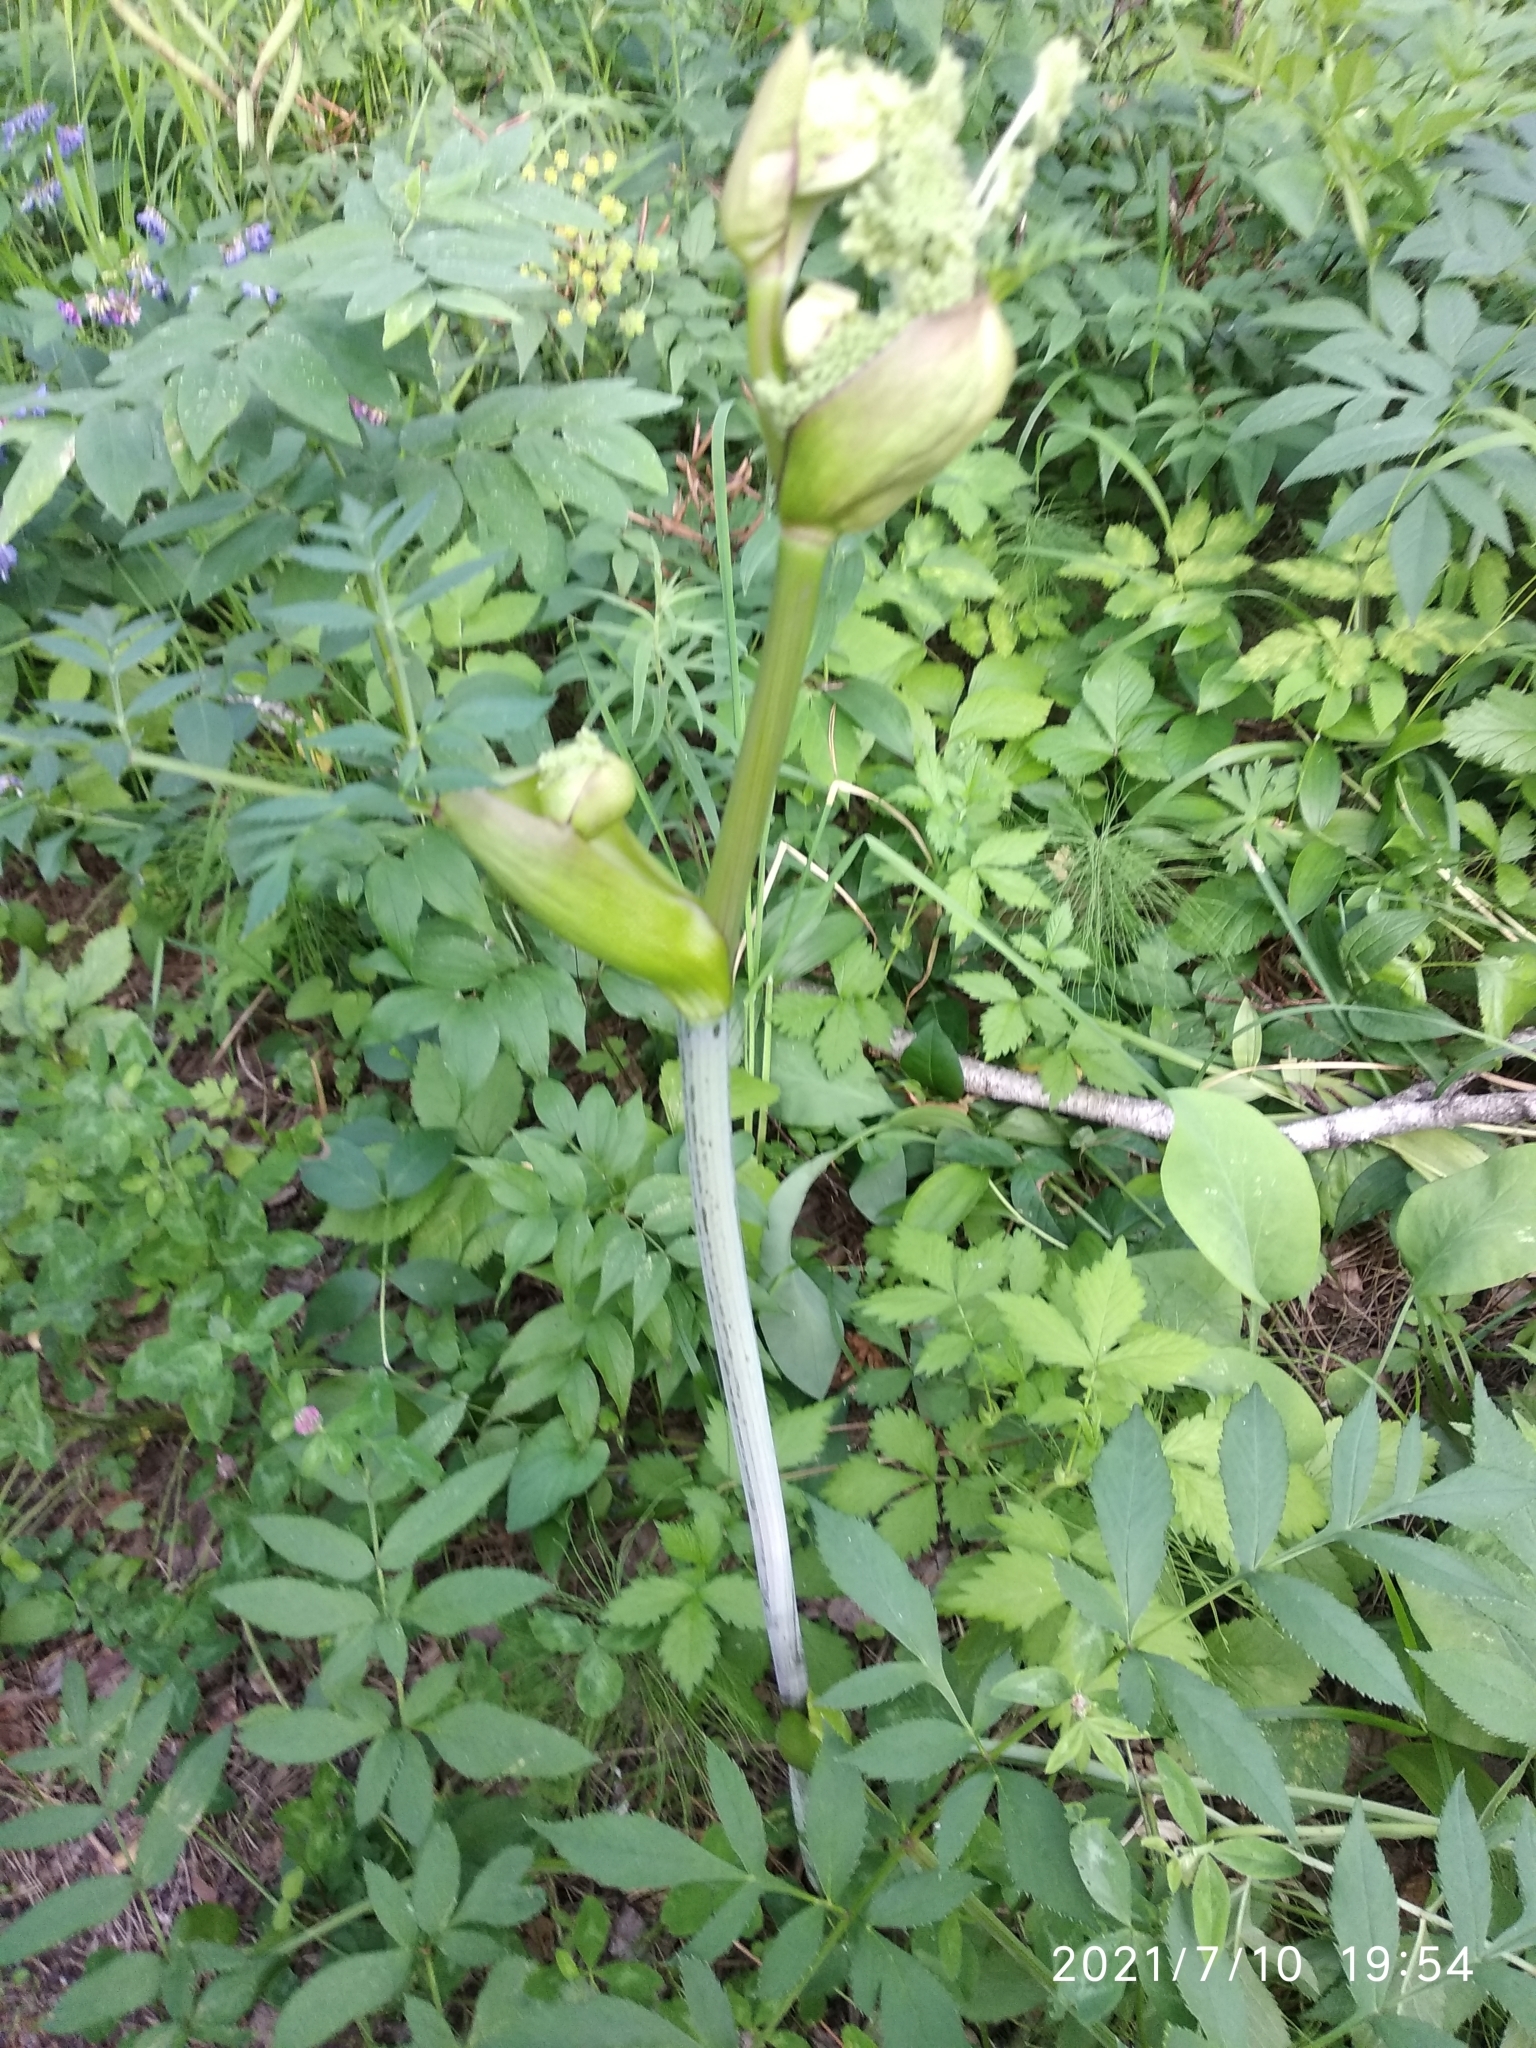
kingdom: Plantae
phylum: Tracheophyta
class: Magnoliopsida
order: Apiales
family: Apiaceae
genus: Angelica
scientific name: Angelica sylvestris
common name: Wild angelica
